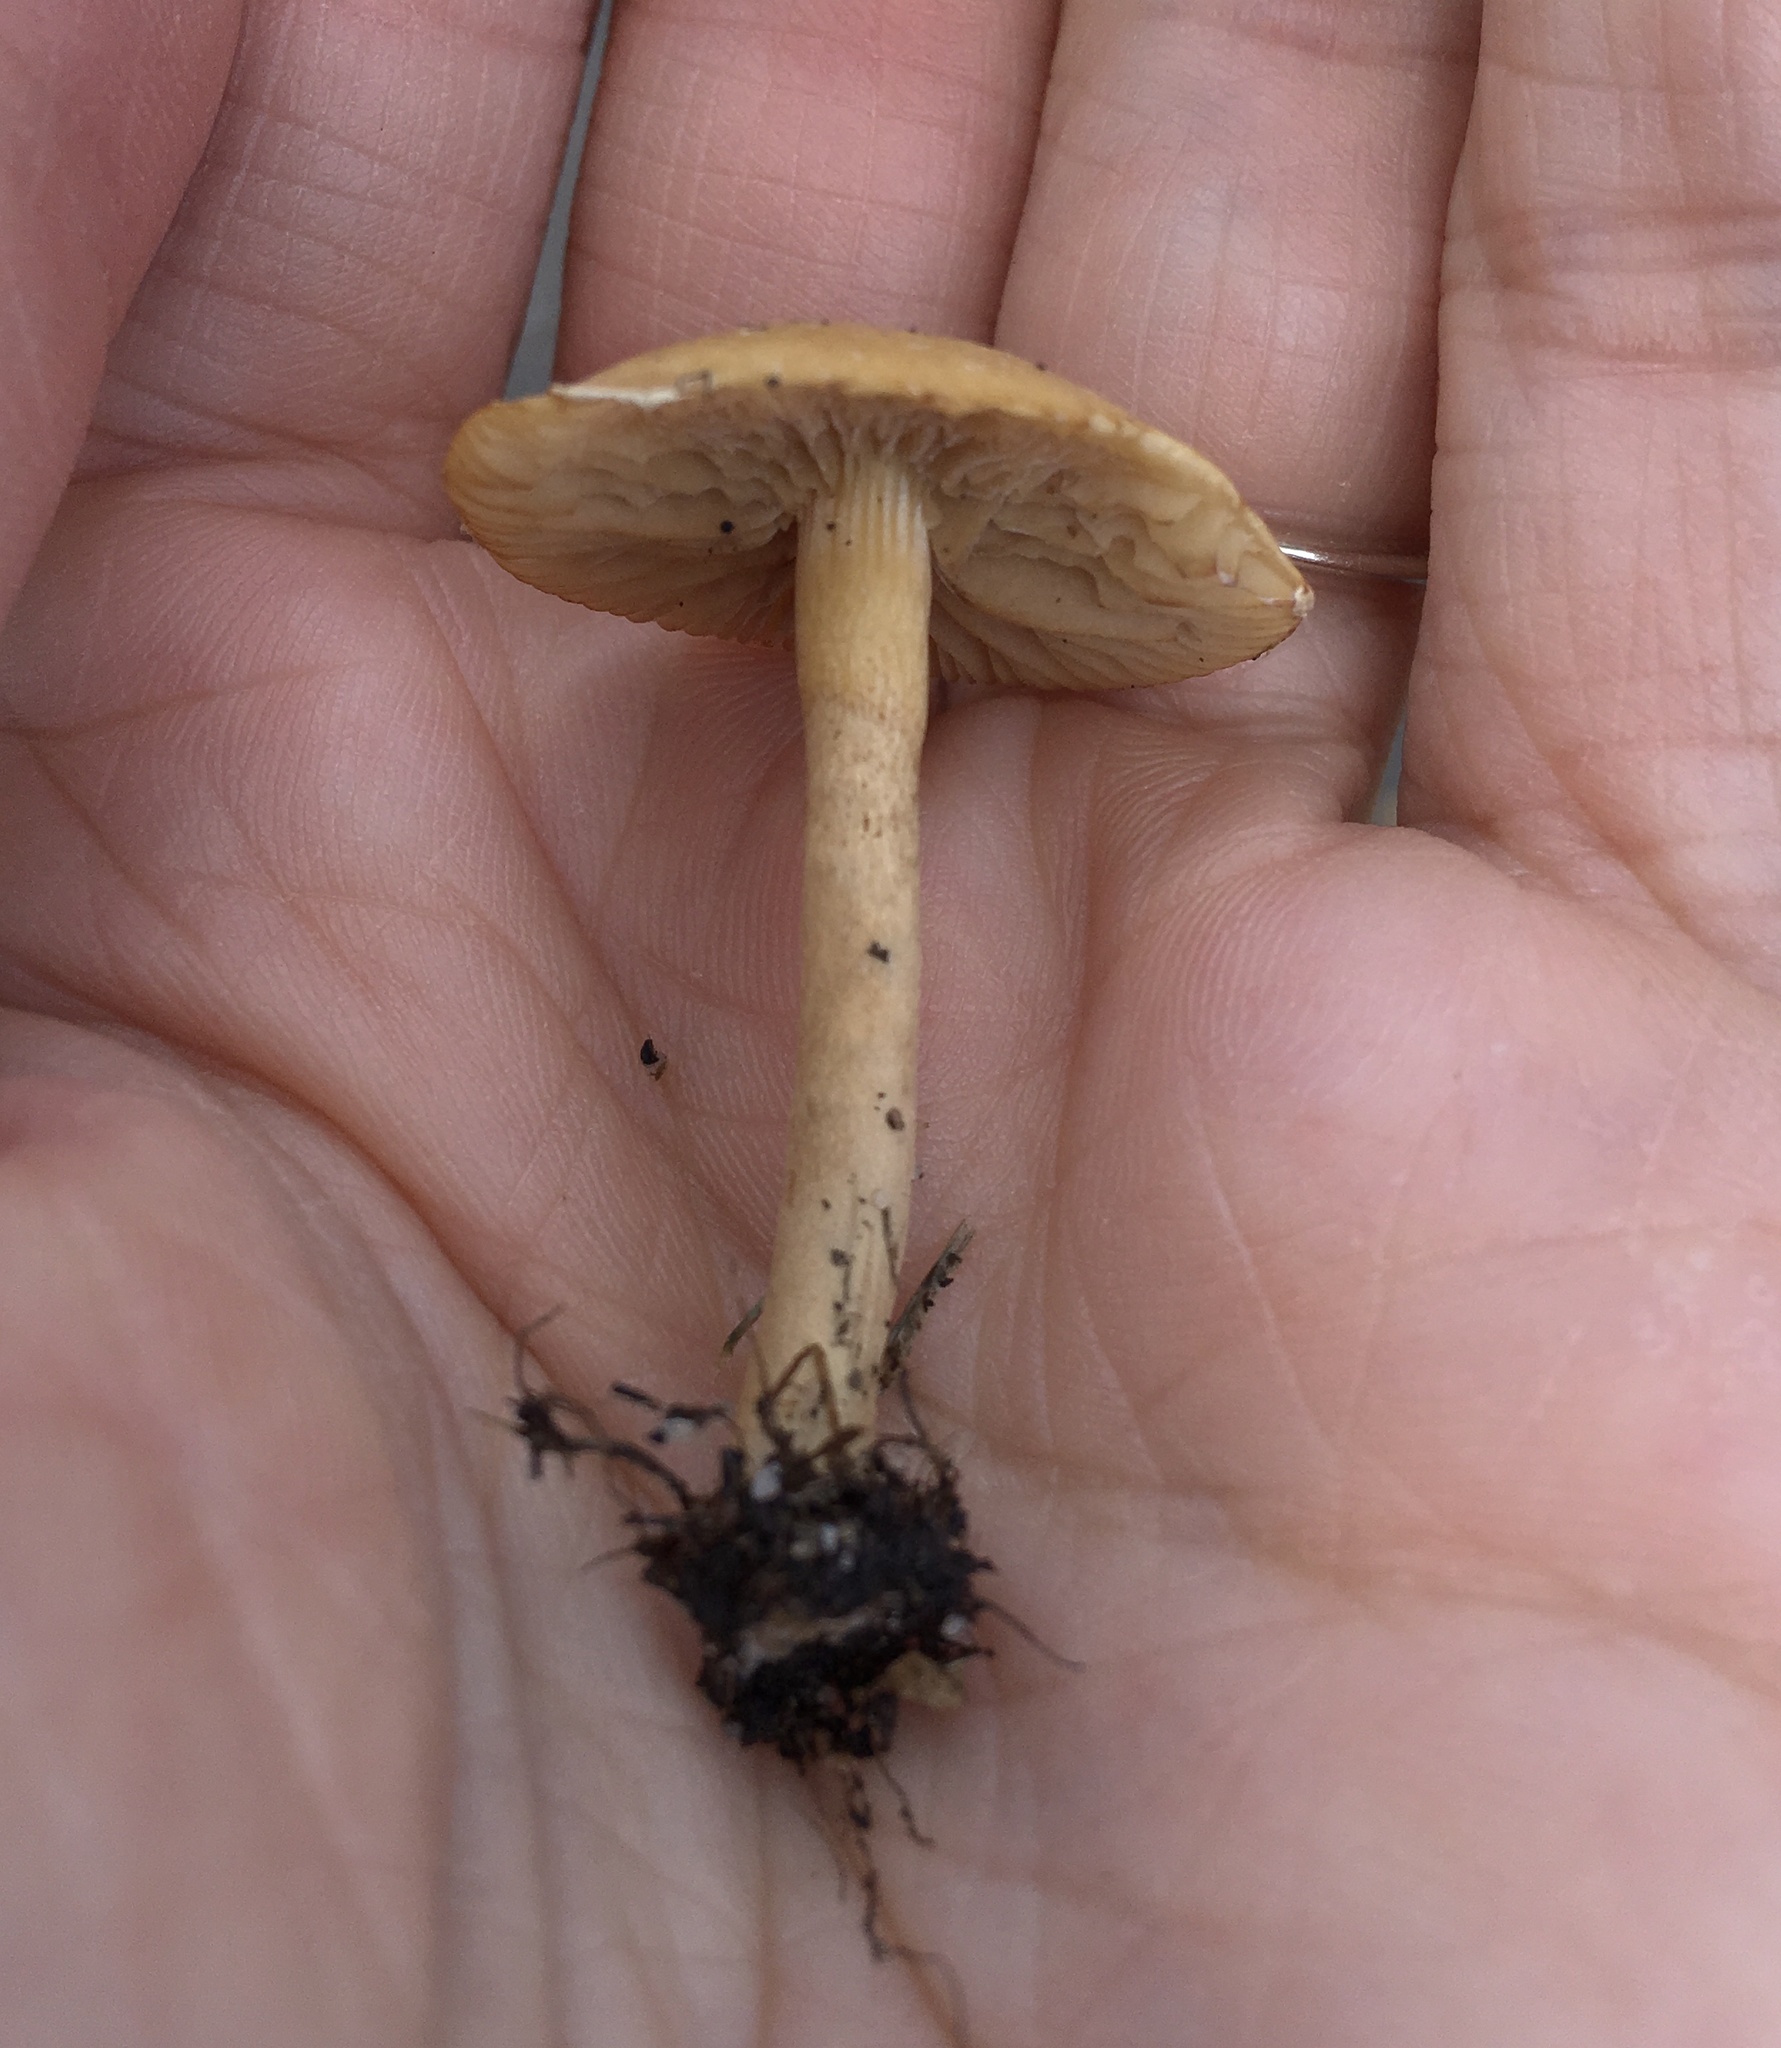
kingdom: Fungi
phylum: Basidiomycota
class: Agaricomycetes
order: Agaricales
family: Strophariaceae
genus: Agrocybe
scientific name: Agrocybe pediades
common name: Common fieldcap
